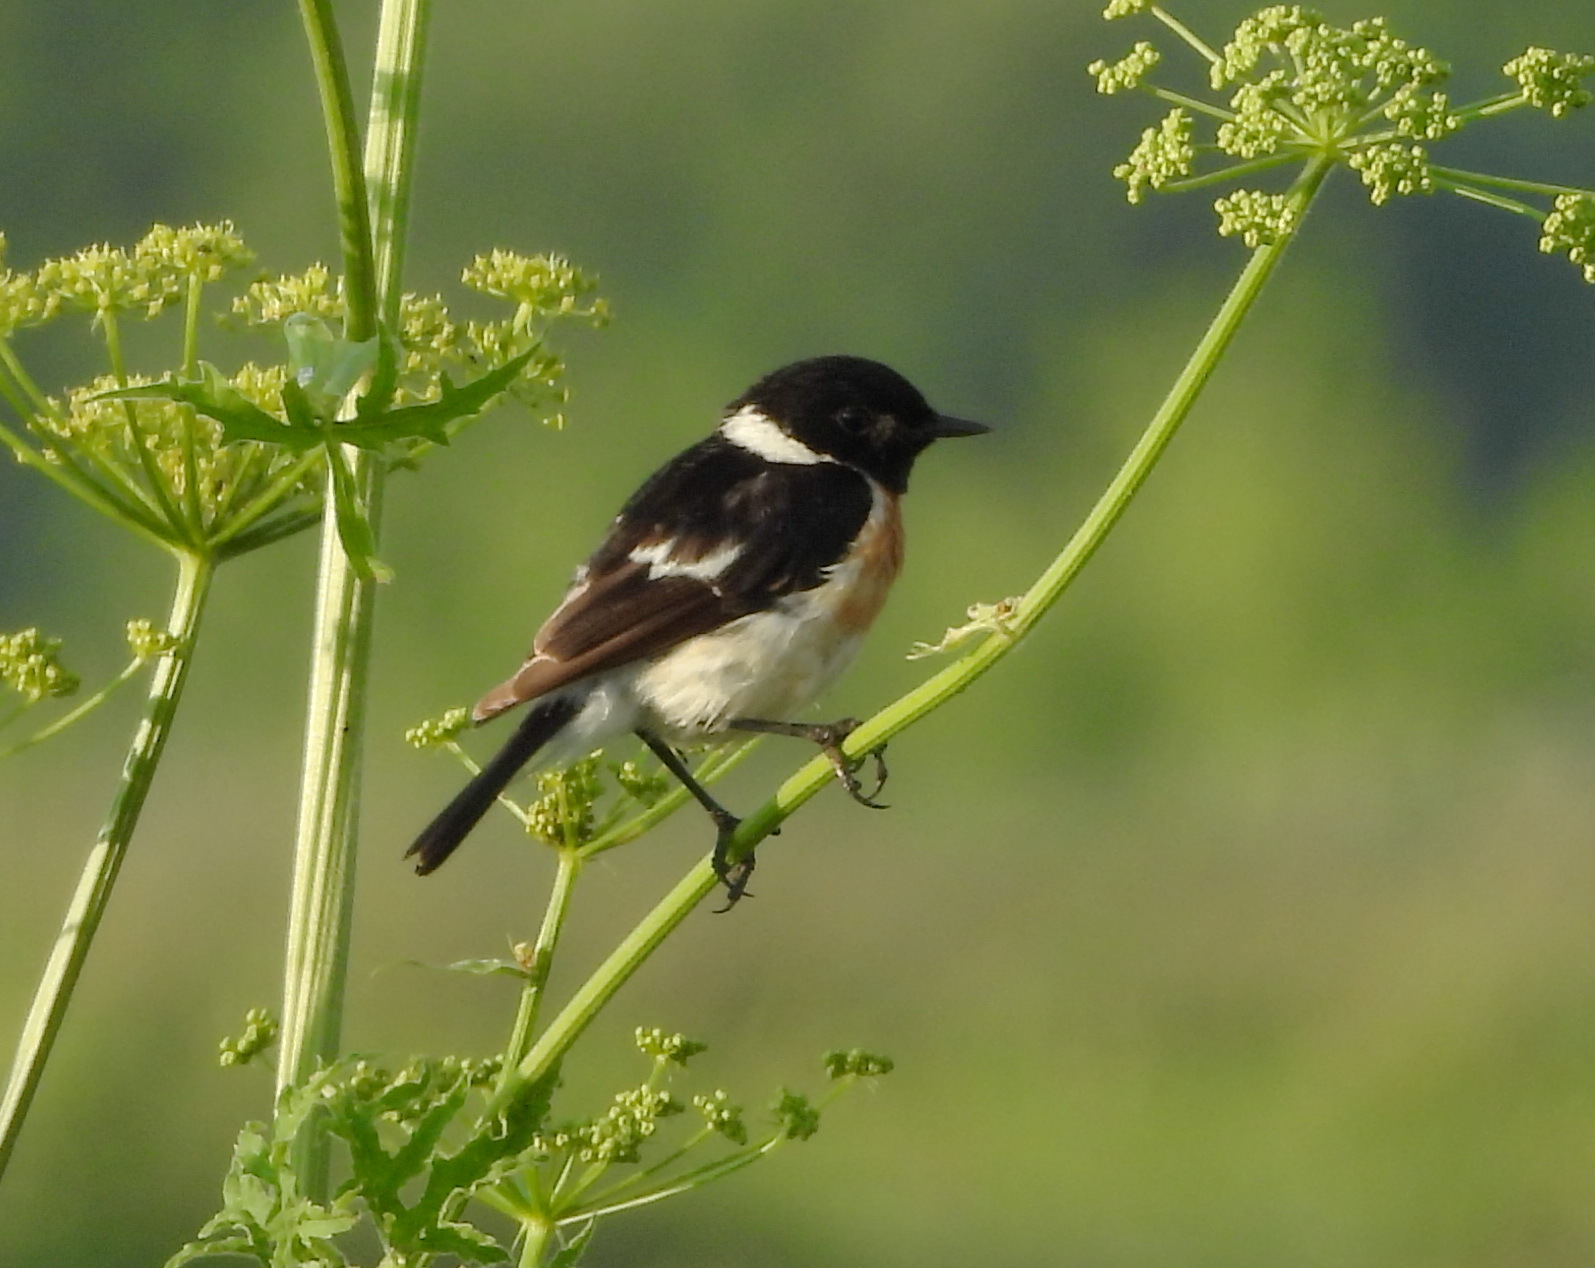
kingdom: Animalia
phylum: Chordata
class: Aves
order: Passeriformes
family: Muscicapidae
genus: Saxicola
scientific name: Saxicola maurus
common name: Siberian stonechat
